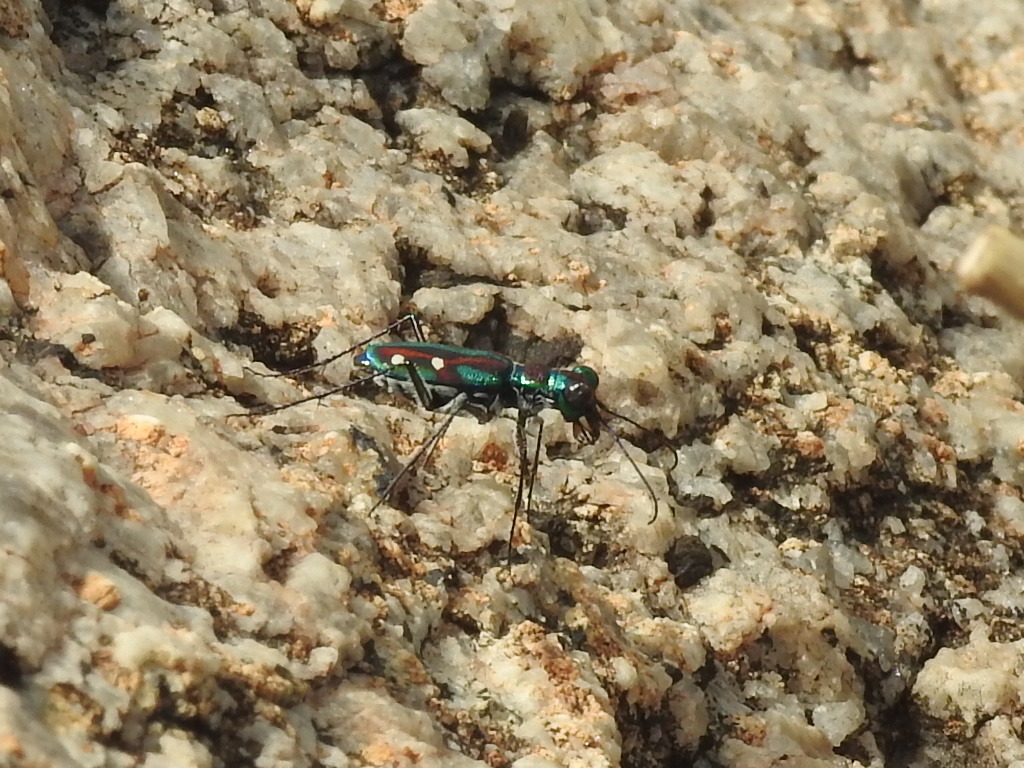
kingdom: Animalia
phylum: Arthropoda
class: Insecta
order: Coleoptera
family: Carabidae
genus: Jansenia
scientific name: Jansenia rugosiceps
